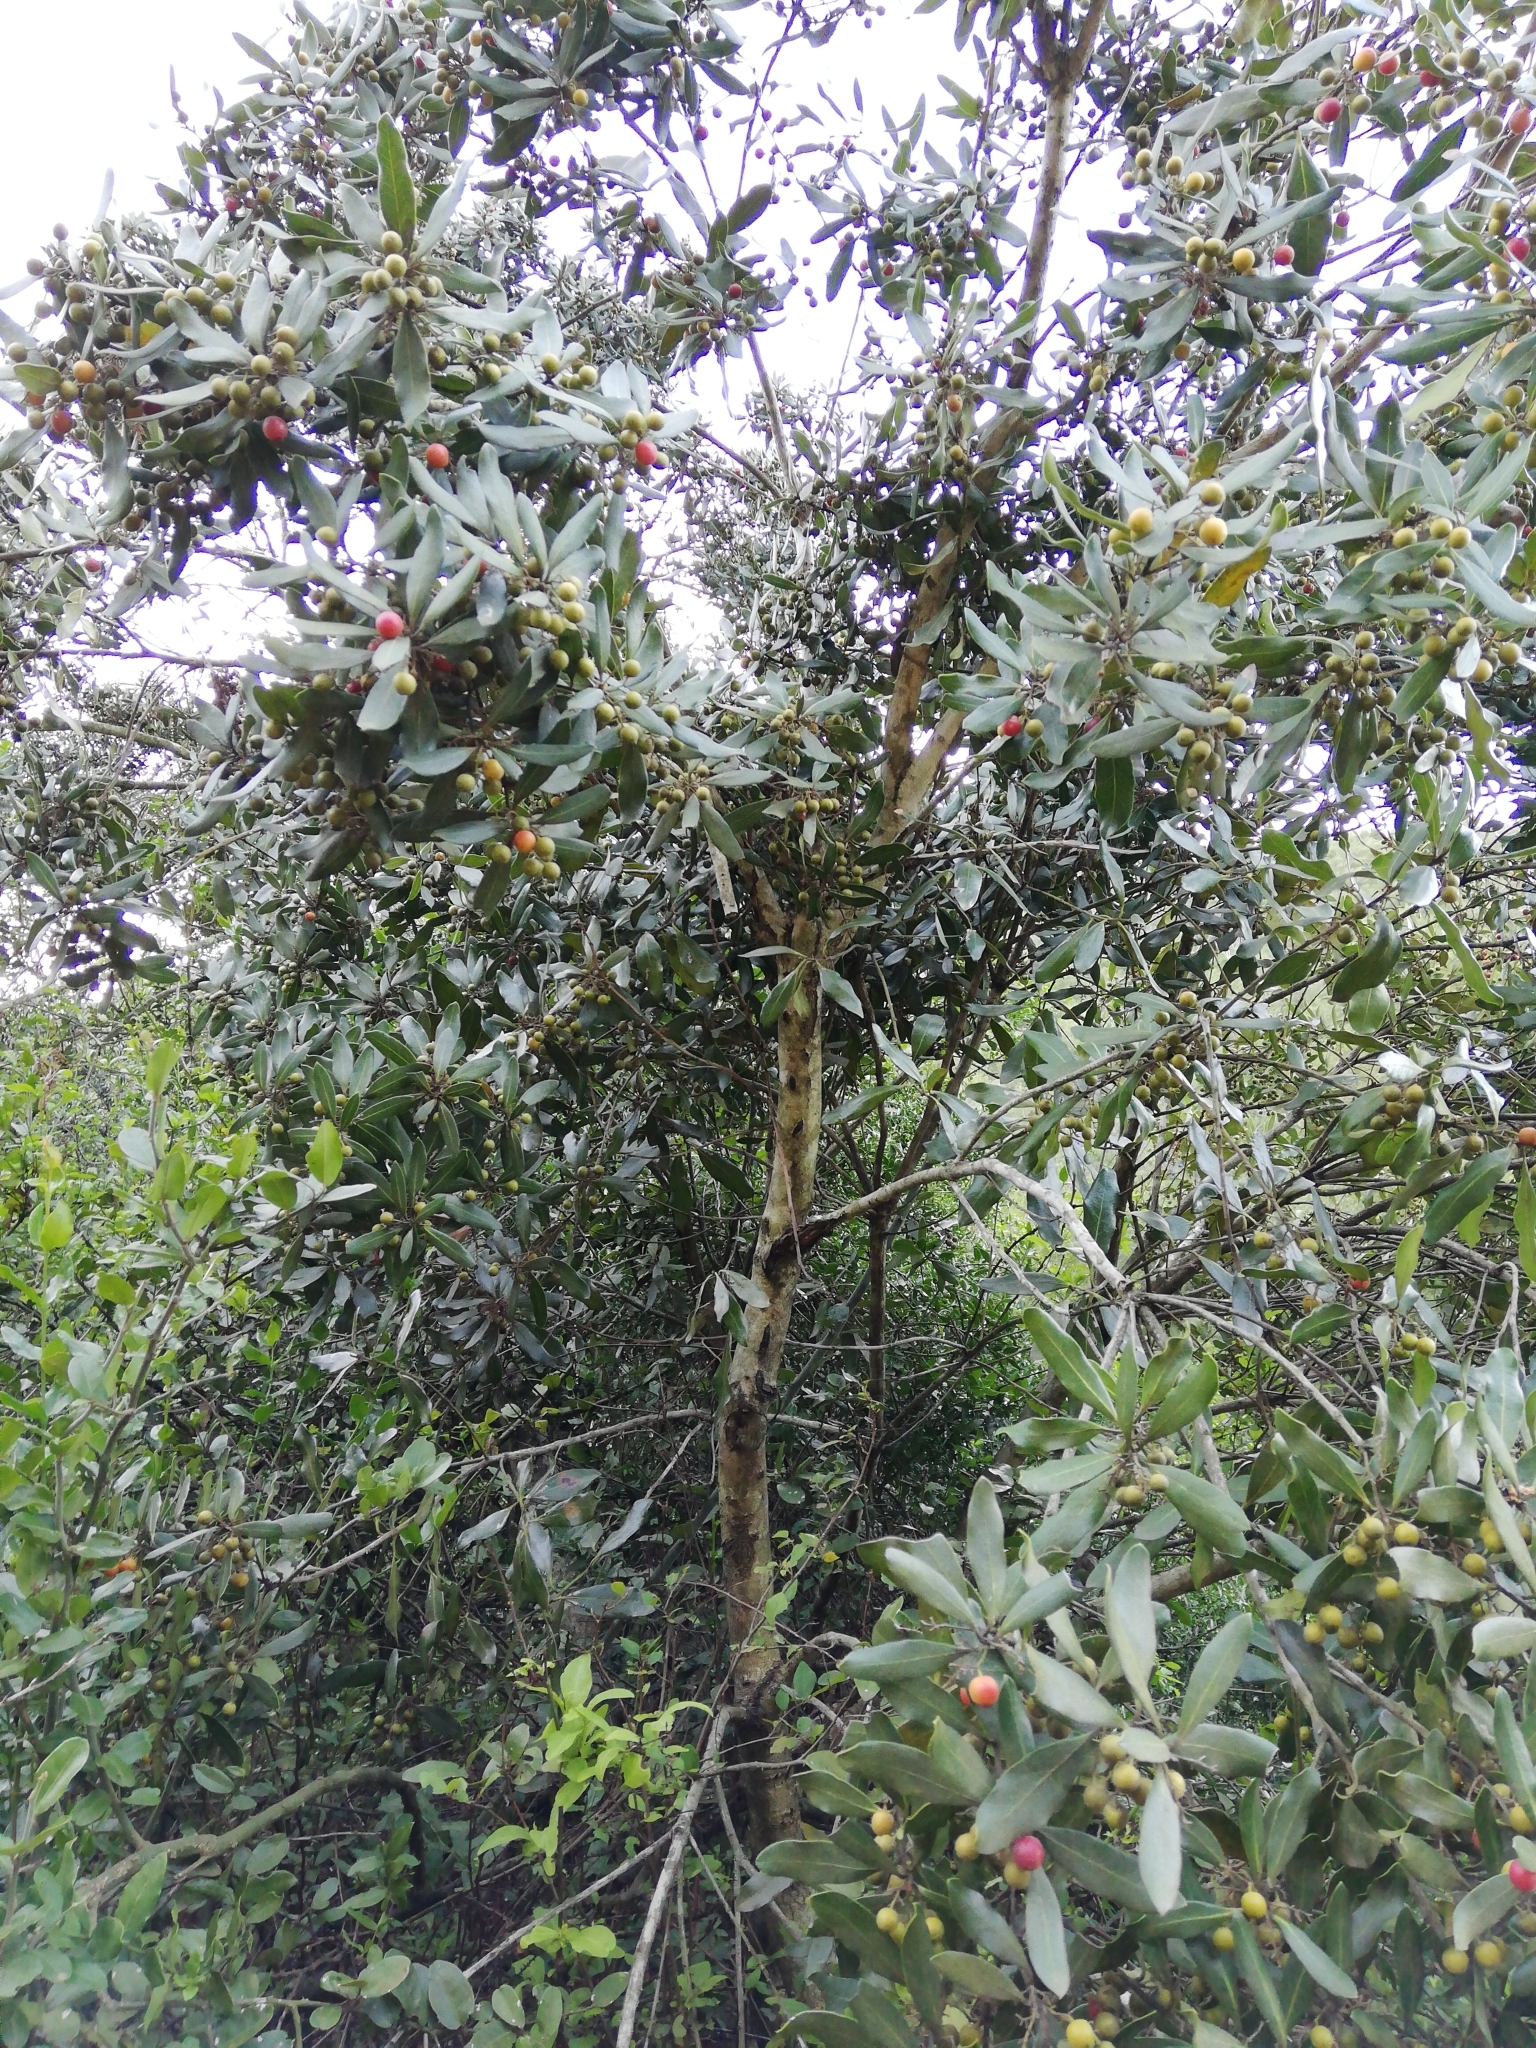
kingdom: Plantae
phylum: Tracheophyta
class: Magnoliopsida
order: Ericales
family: Ebenaceae
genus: Euclea
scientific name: Euclea natalensis
